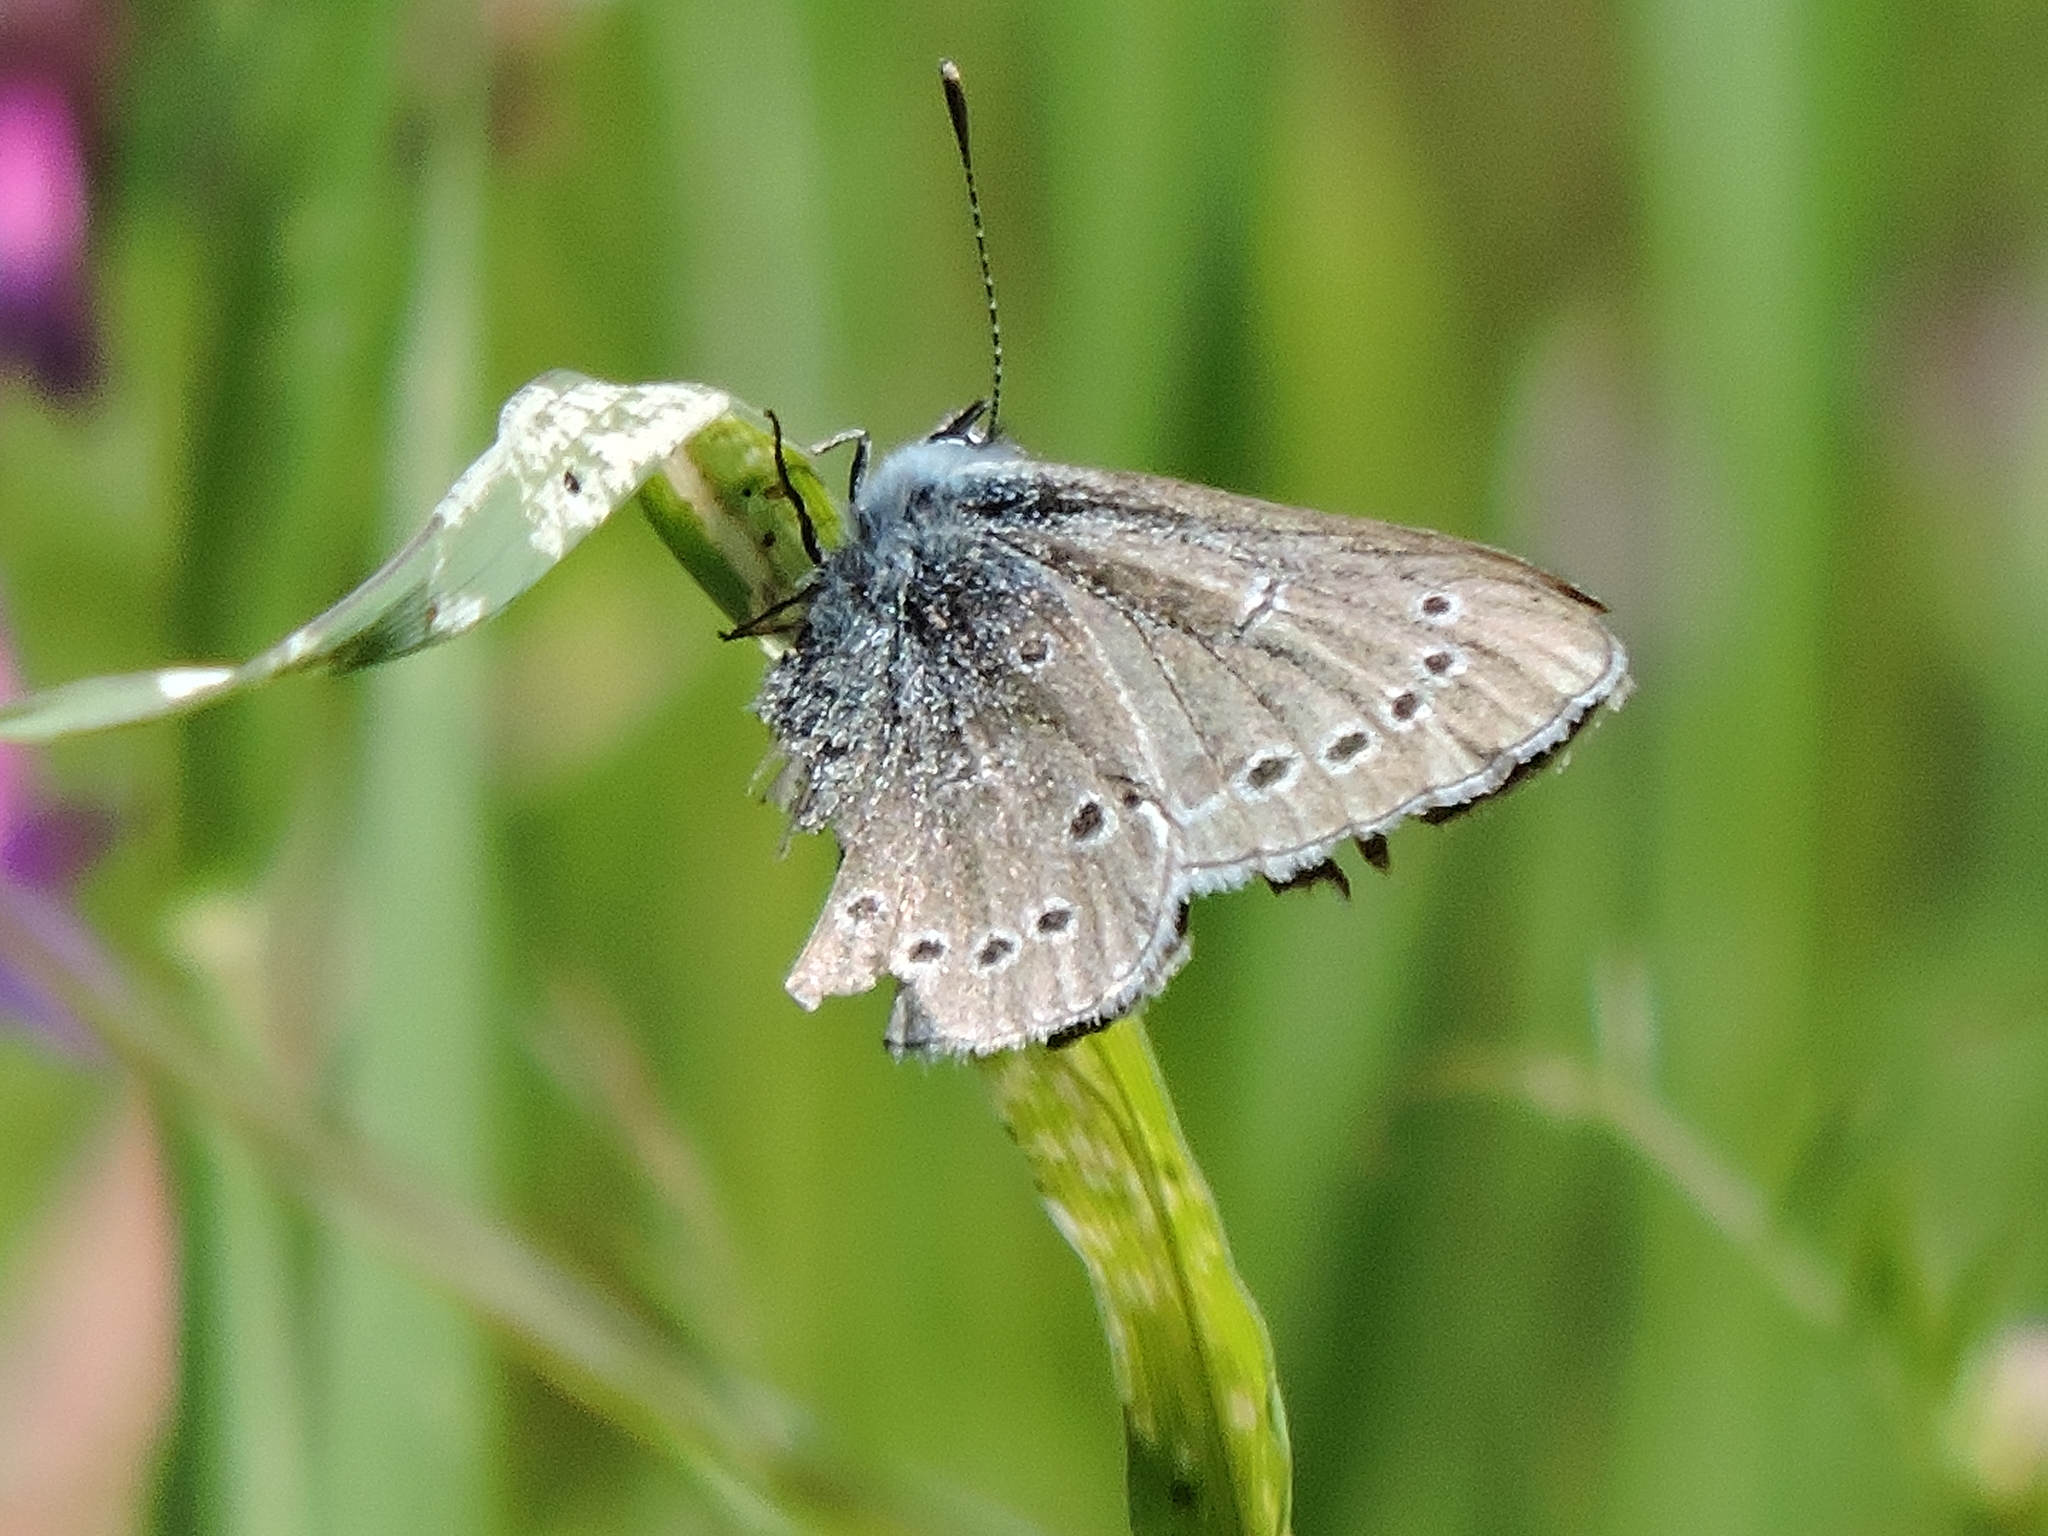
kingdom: Animalia
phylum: Arthropoda
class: Insecta
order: Lepidoptera
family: Lycaenidae
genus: Glaucopsyche
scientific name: Glaucopsyche lygdamus
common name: Silvery blue
